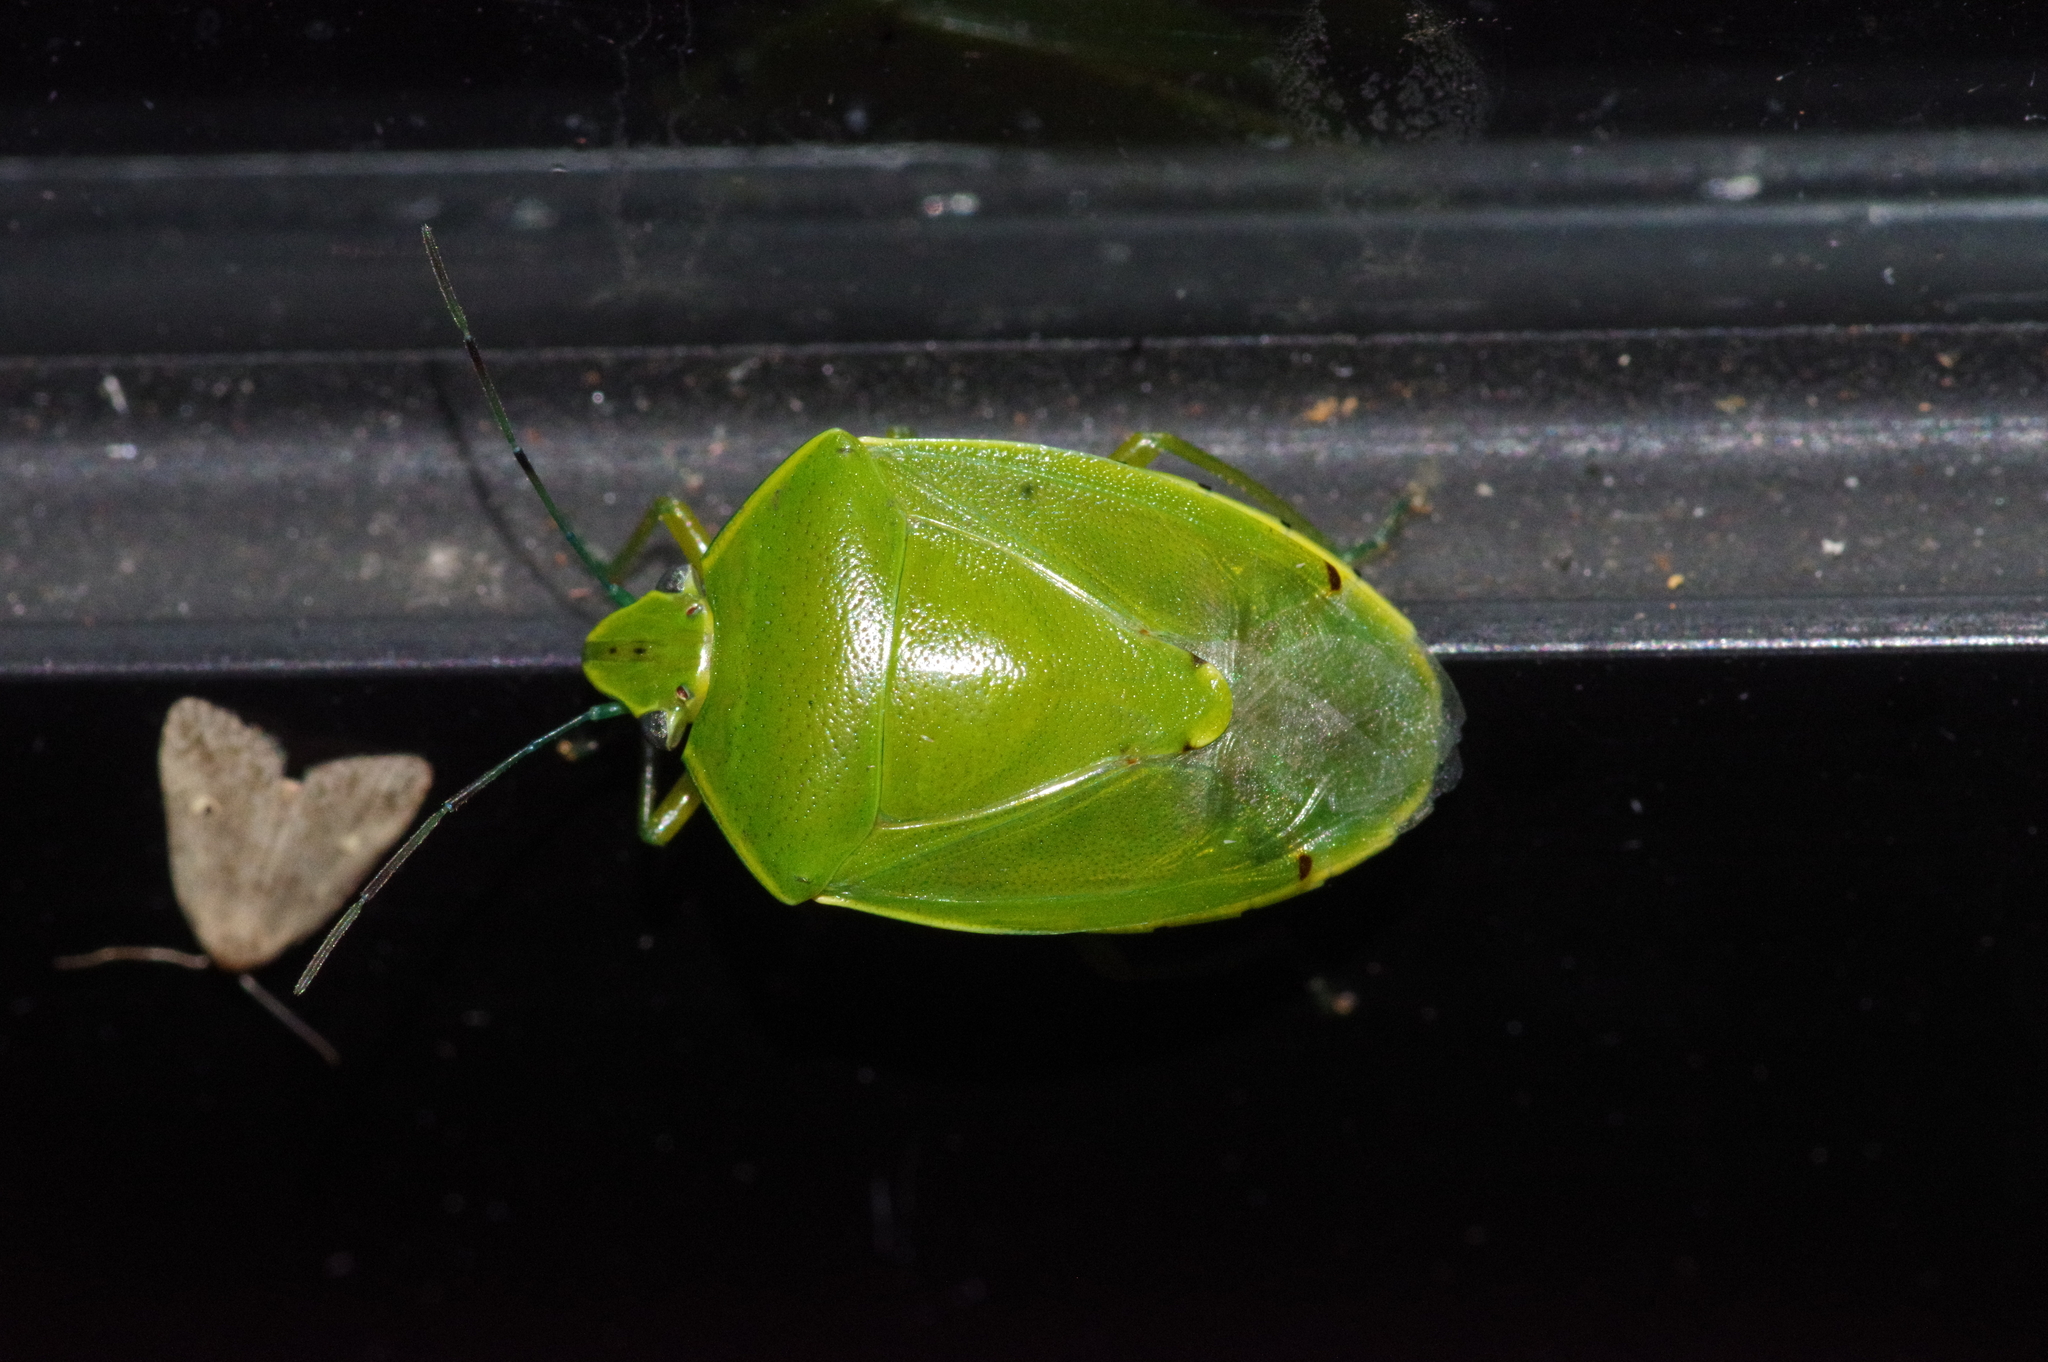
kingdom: Animalia
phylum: Arthropoda
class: Insecta
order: Hemiptera
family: Pentatomidae
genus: Glaucias
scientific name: Glaucias subpunctatus
